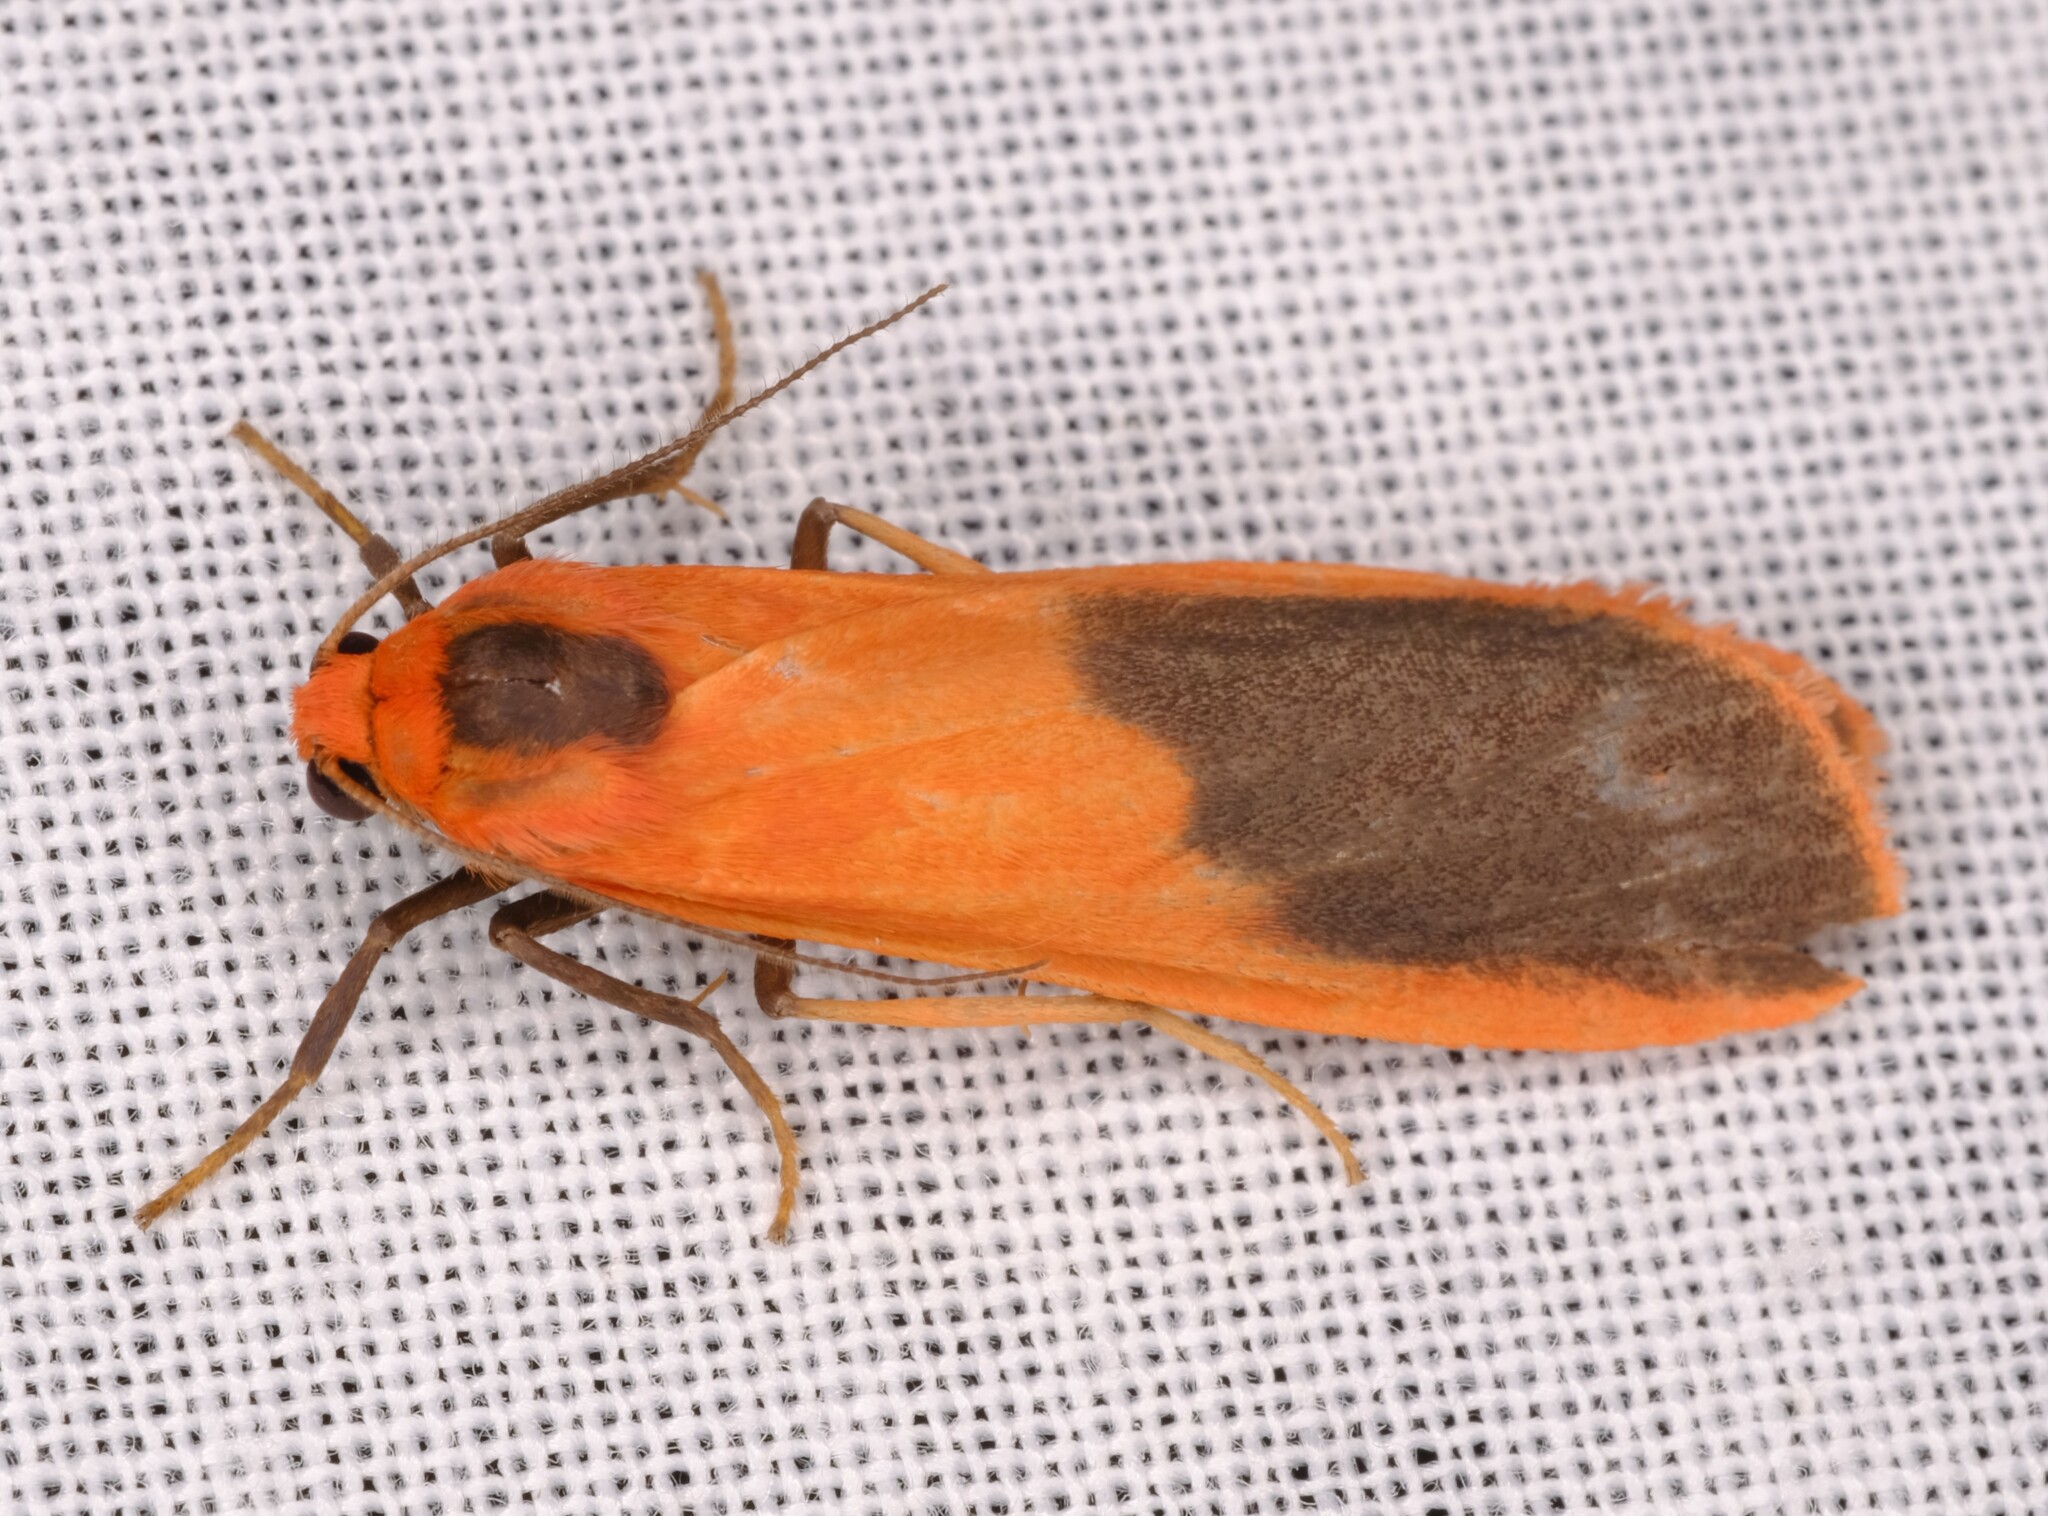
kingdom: Animalia
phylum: Arthropoda
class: Insecta
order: Lepidoptera
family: Erebidae
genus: Scoliacma
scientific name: Scoliacma bicolora
